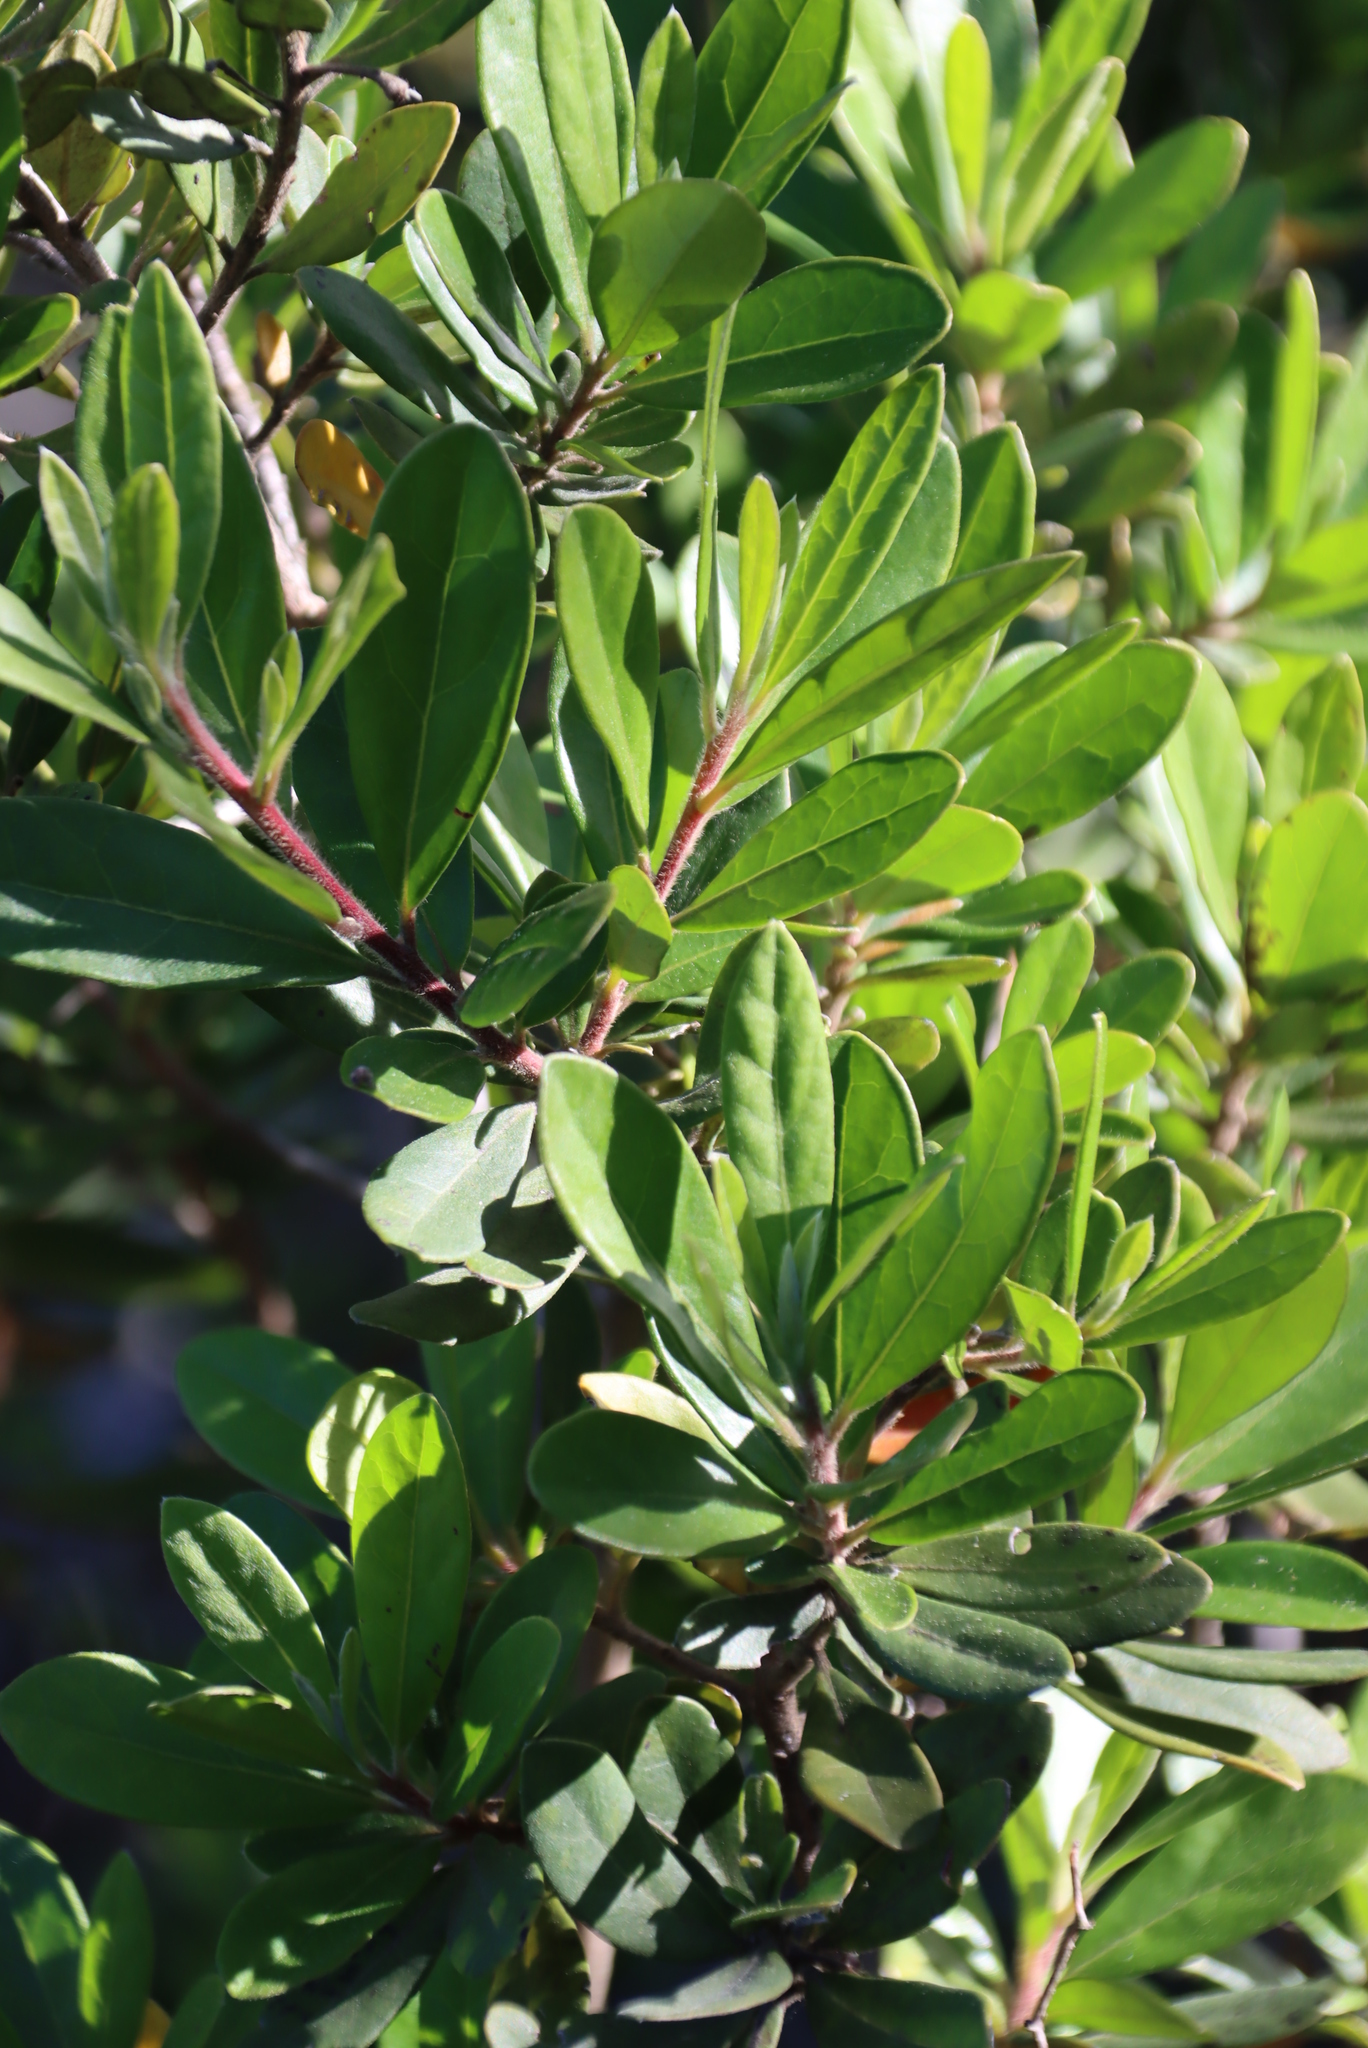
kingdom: Plantae
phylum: Tracheophyta
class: Magnoliopsida
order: Ericales
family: Ebenaceae
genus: Diospyros
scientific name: Diospyros dichrophylla
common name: Common star-apple
